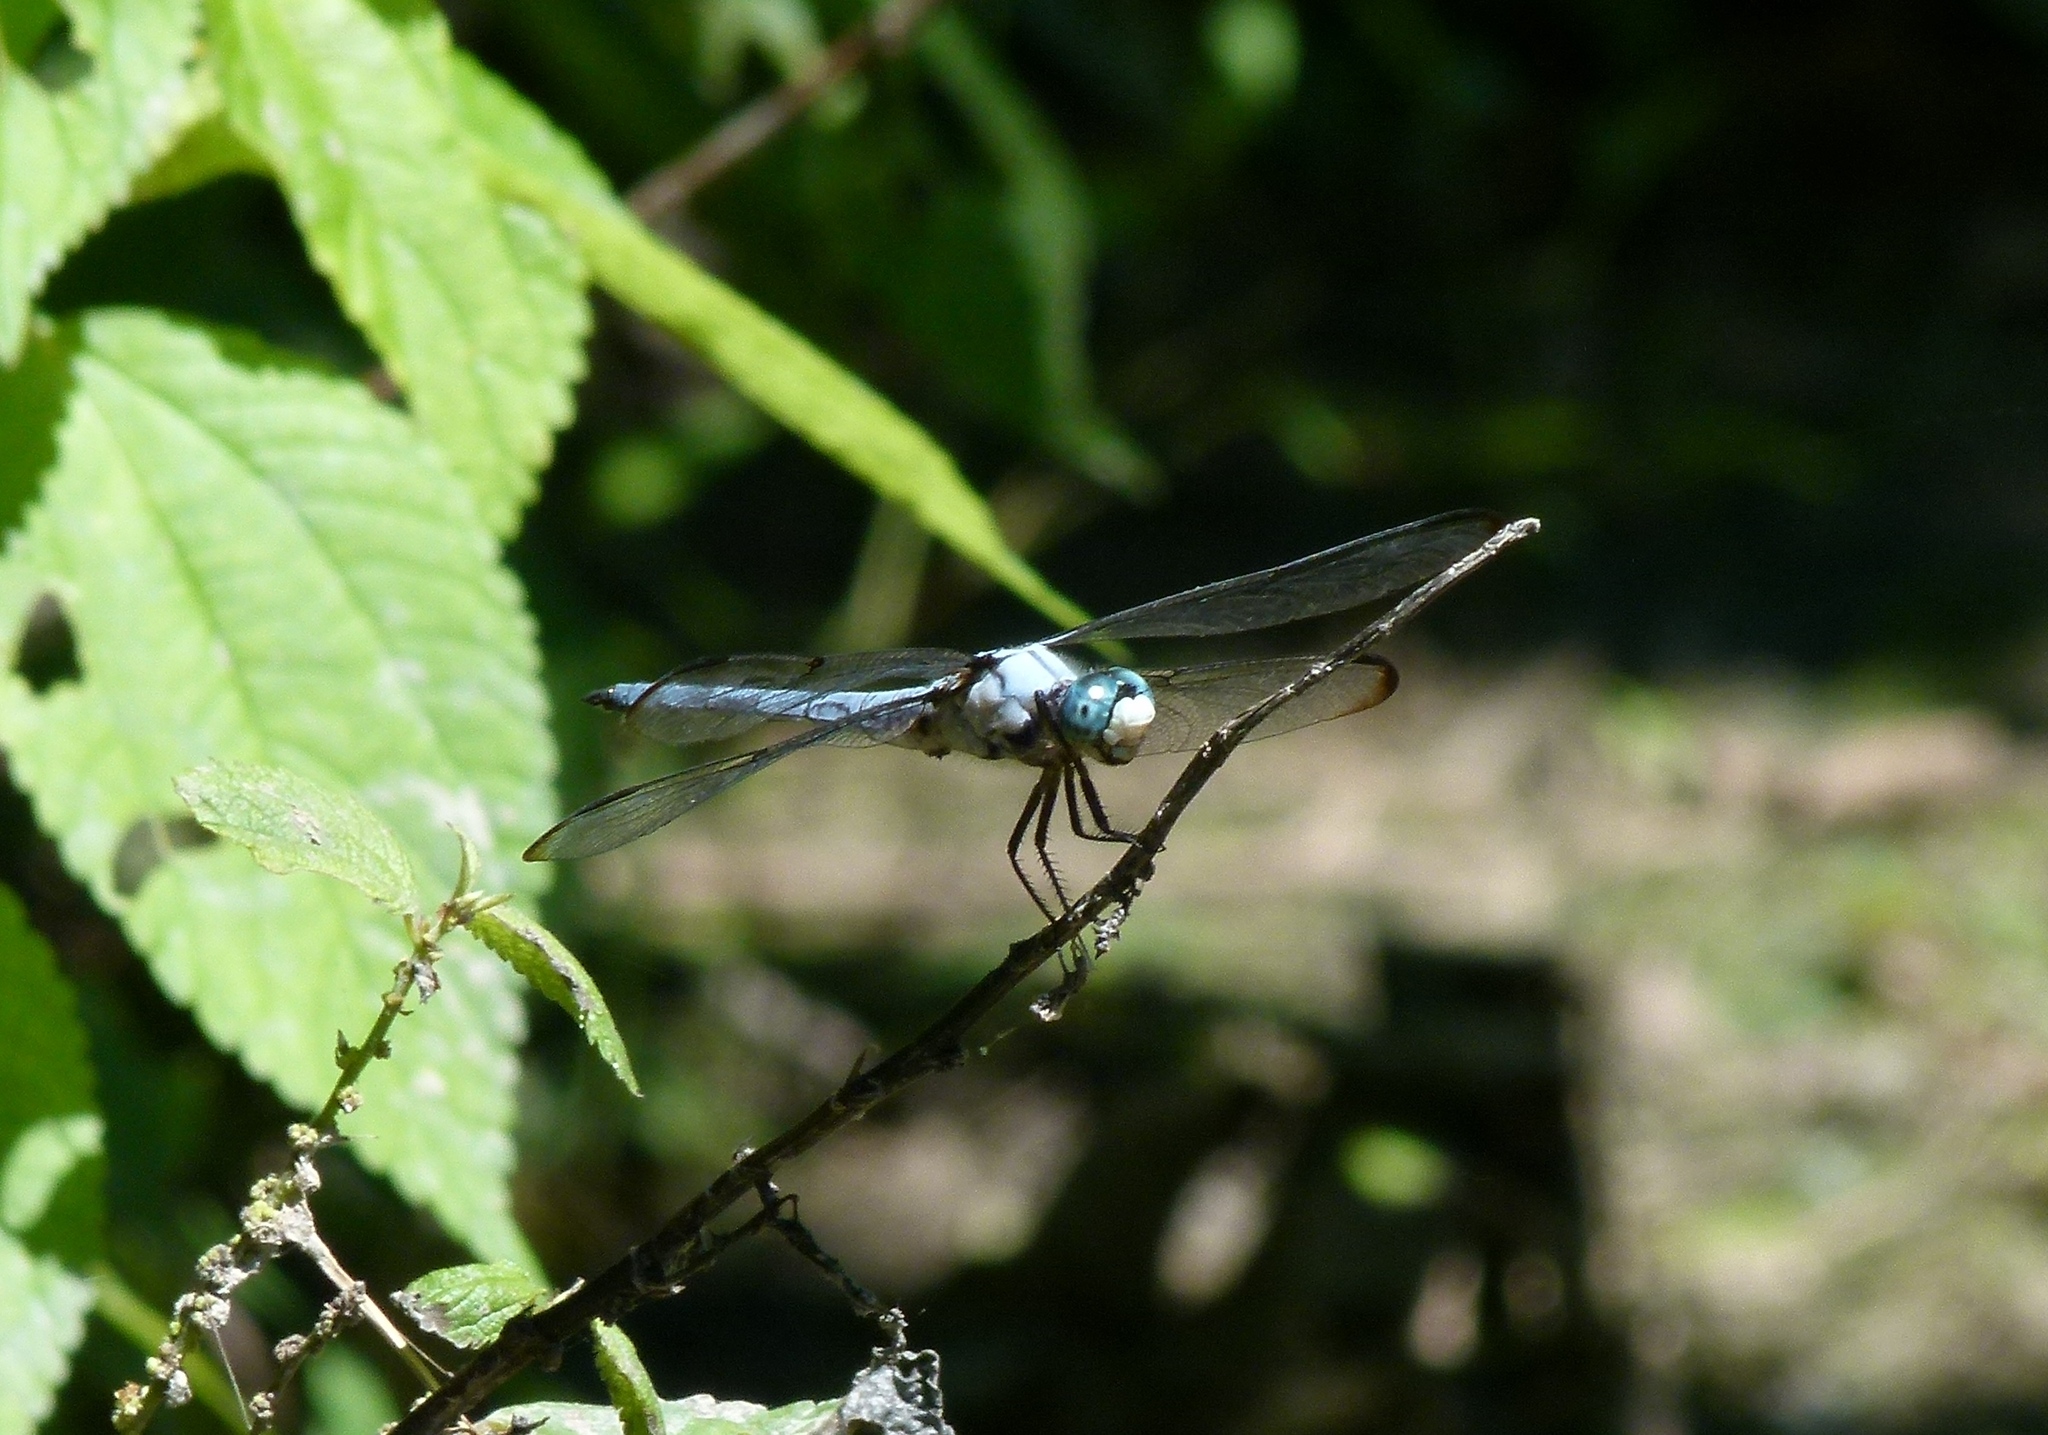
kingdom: Animalia
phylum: Arthropoda
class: Insecta
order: Odonata
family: Libellulidae
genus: Libellula
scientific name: Libellula vibrans
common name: Great blue skimmer
